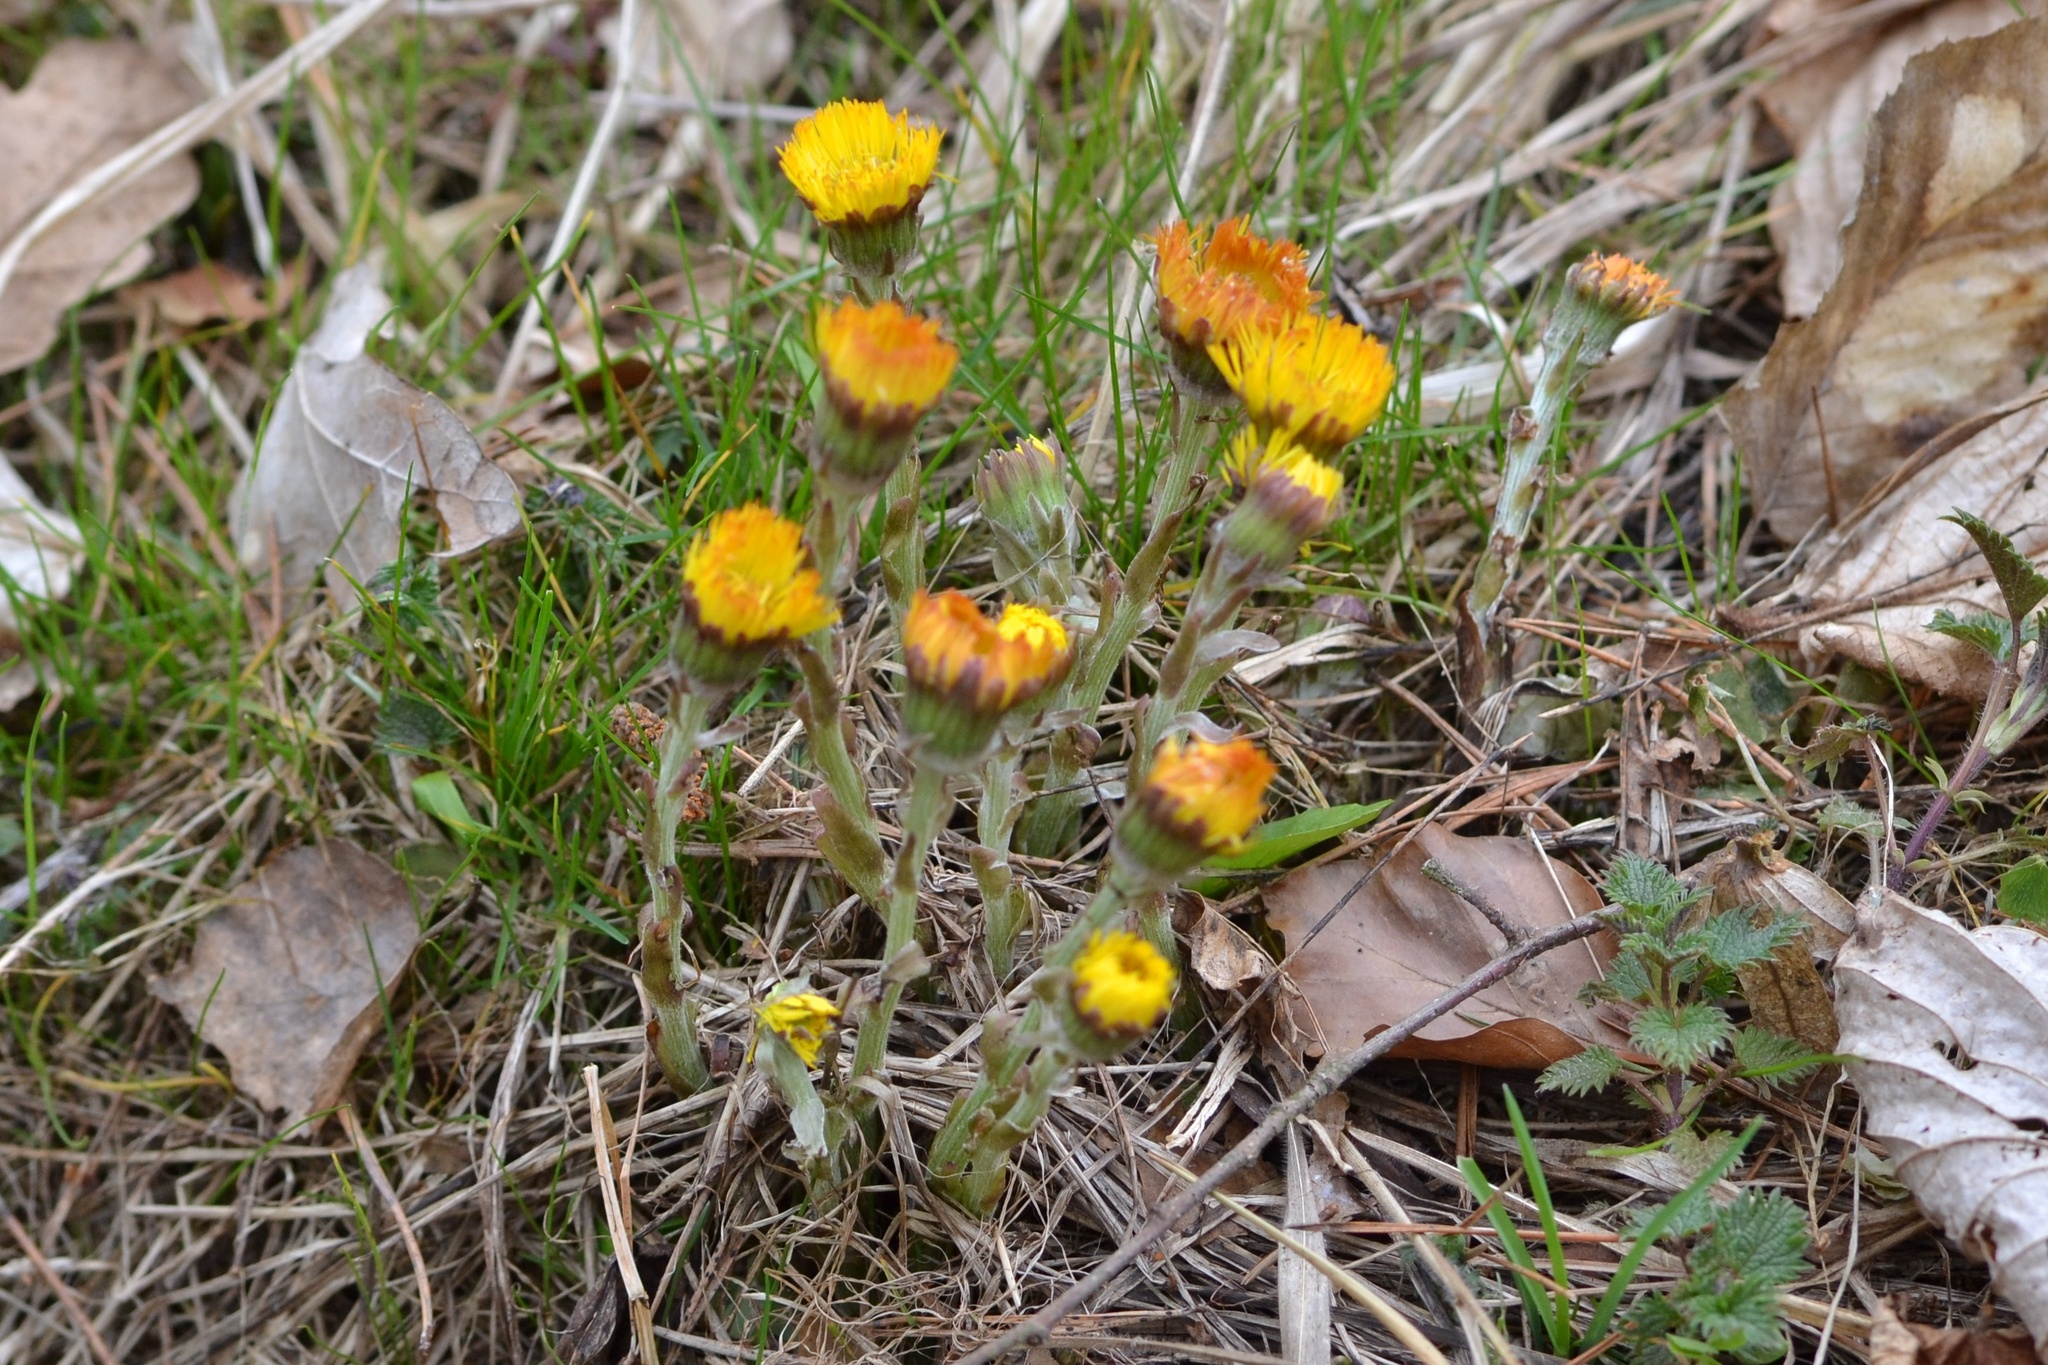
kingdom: Plantae
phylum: Tracheophyta
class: Magnoliopsida
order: Asterales
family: Asteraceae
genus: Tussilago
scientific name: Tussilago farfara
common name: Coltsfoot
